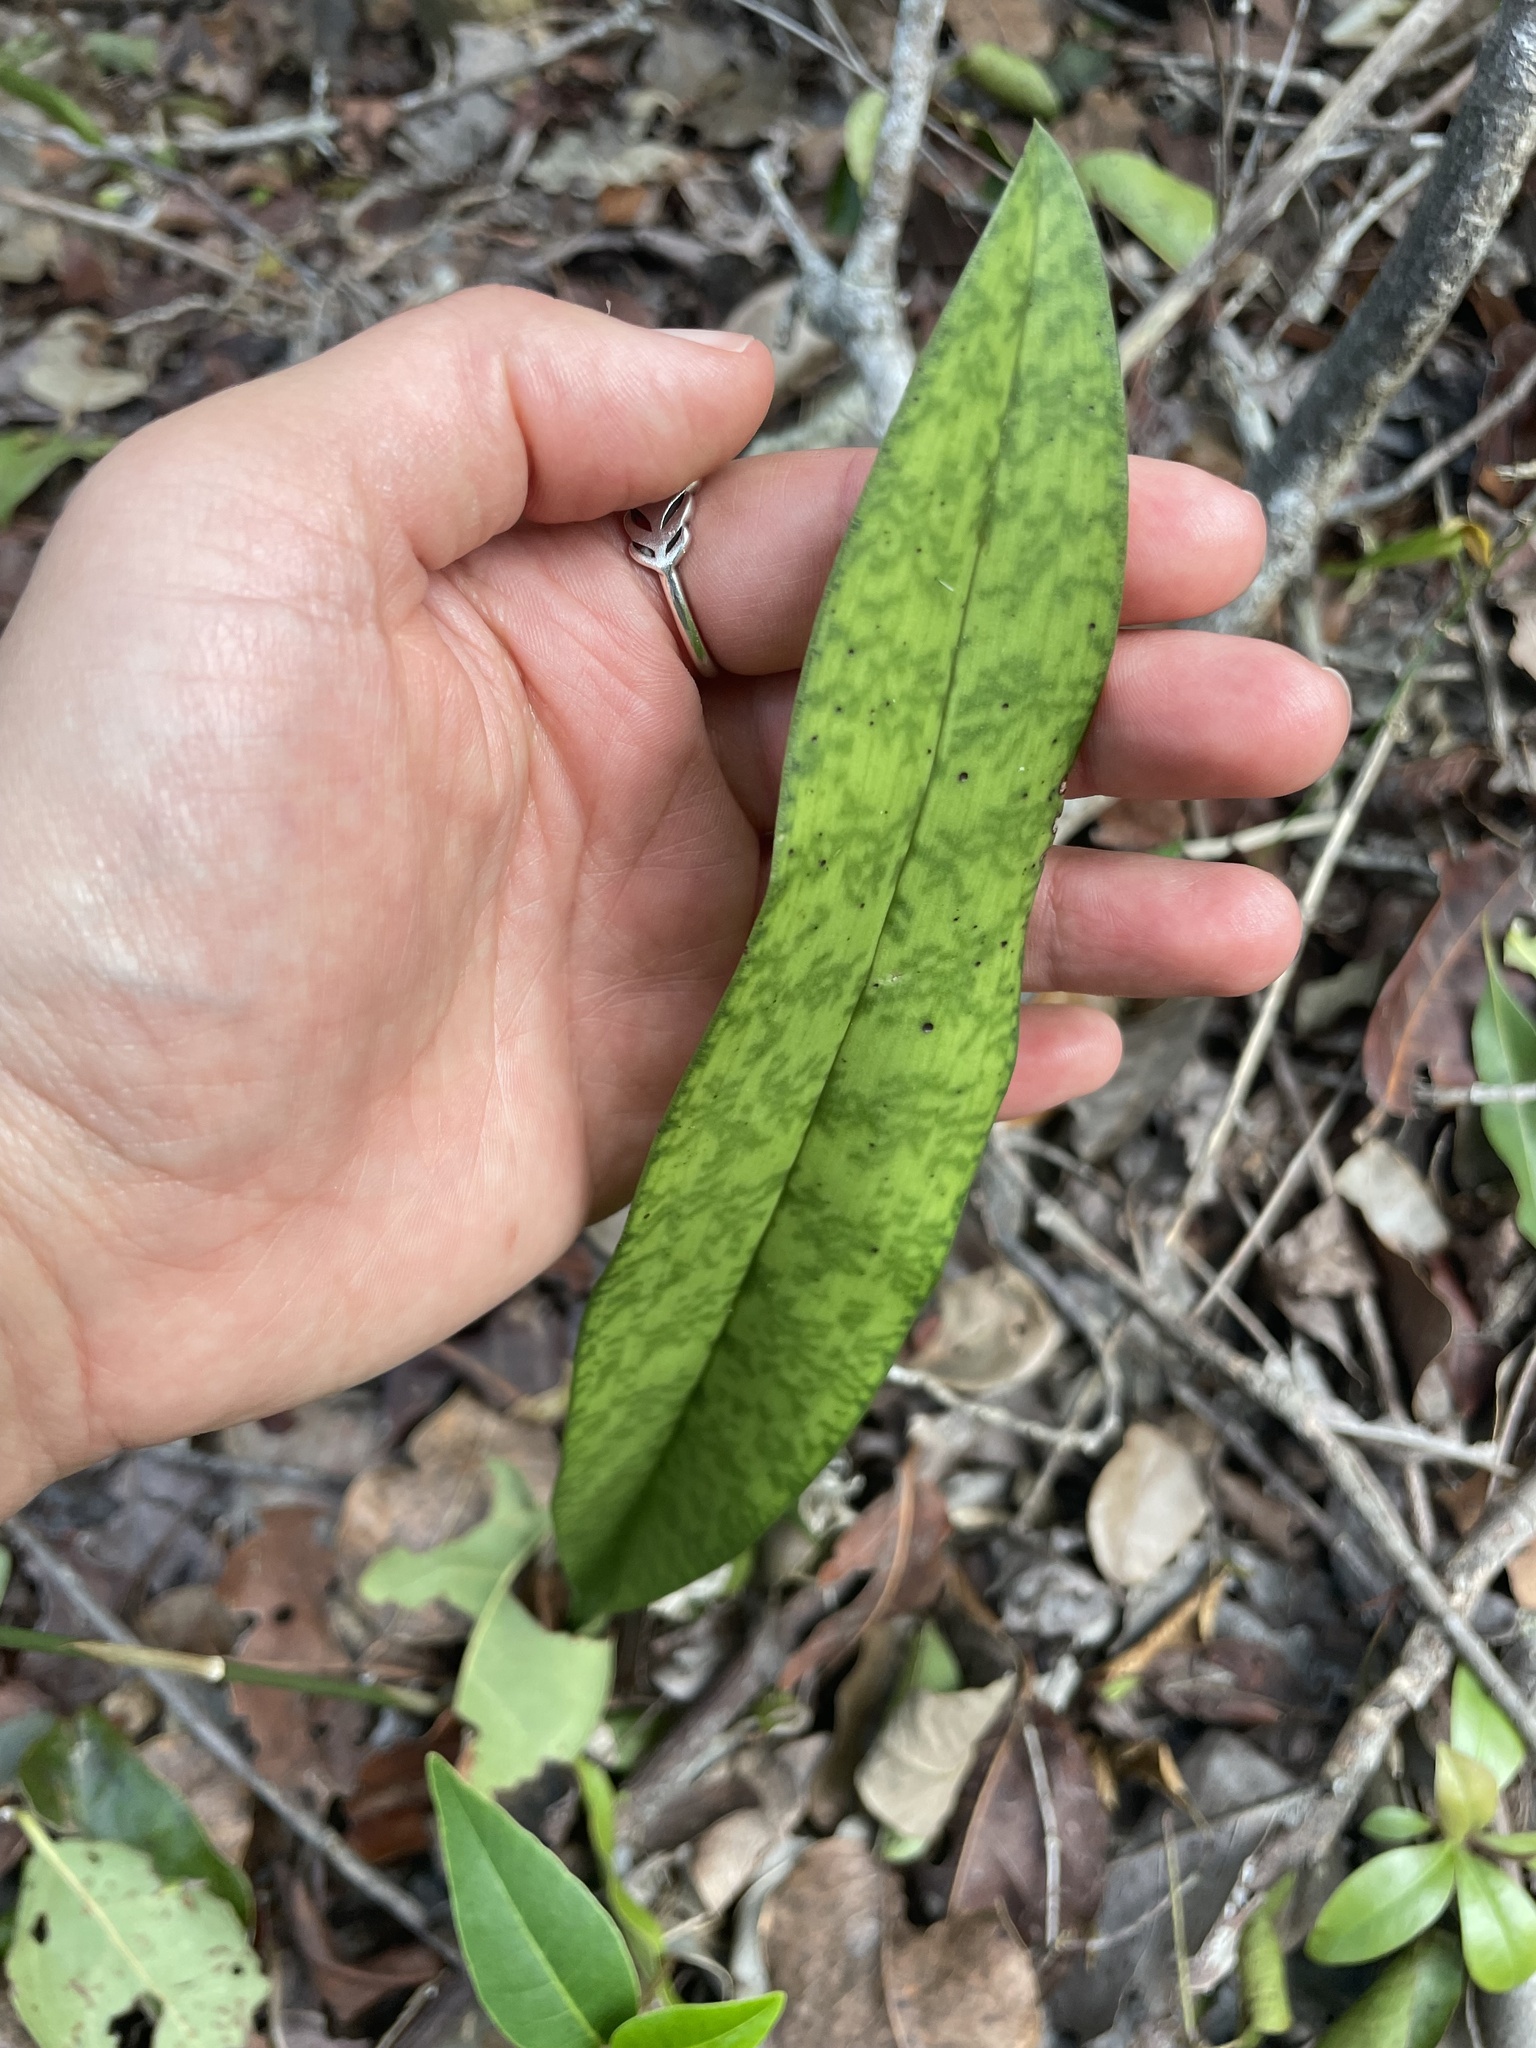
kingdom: Plantae
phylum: Tracheophyta
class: Liliopsida
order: Asparagales
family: Orchidaceae
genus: Eulophia
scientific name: Eulophia maculata
